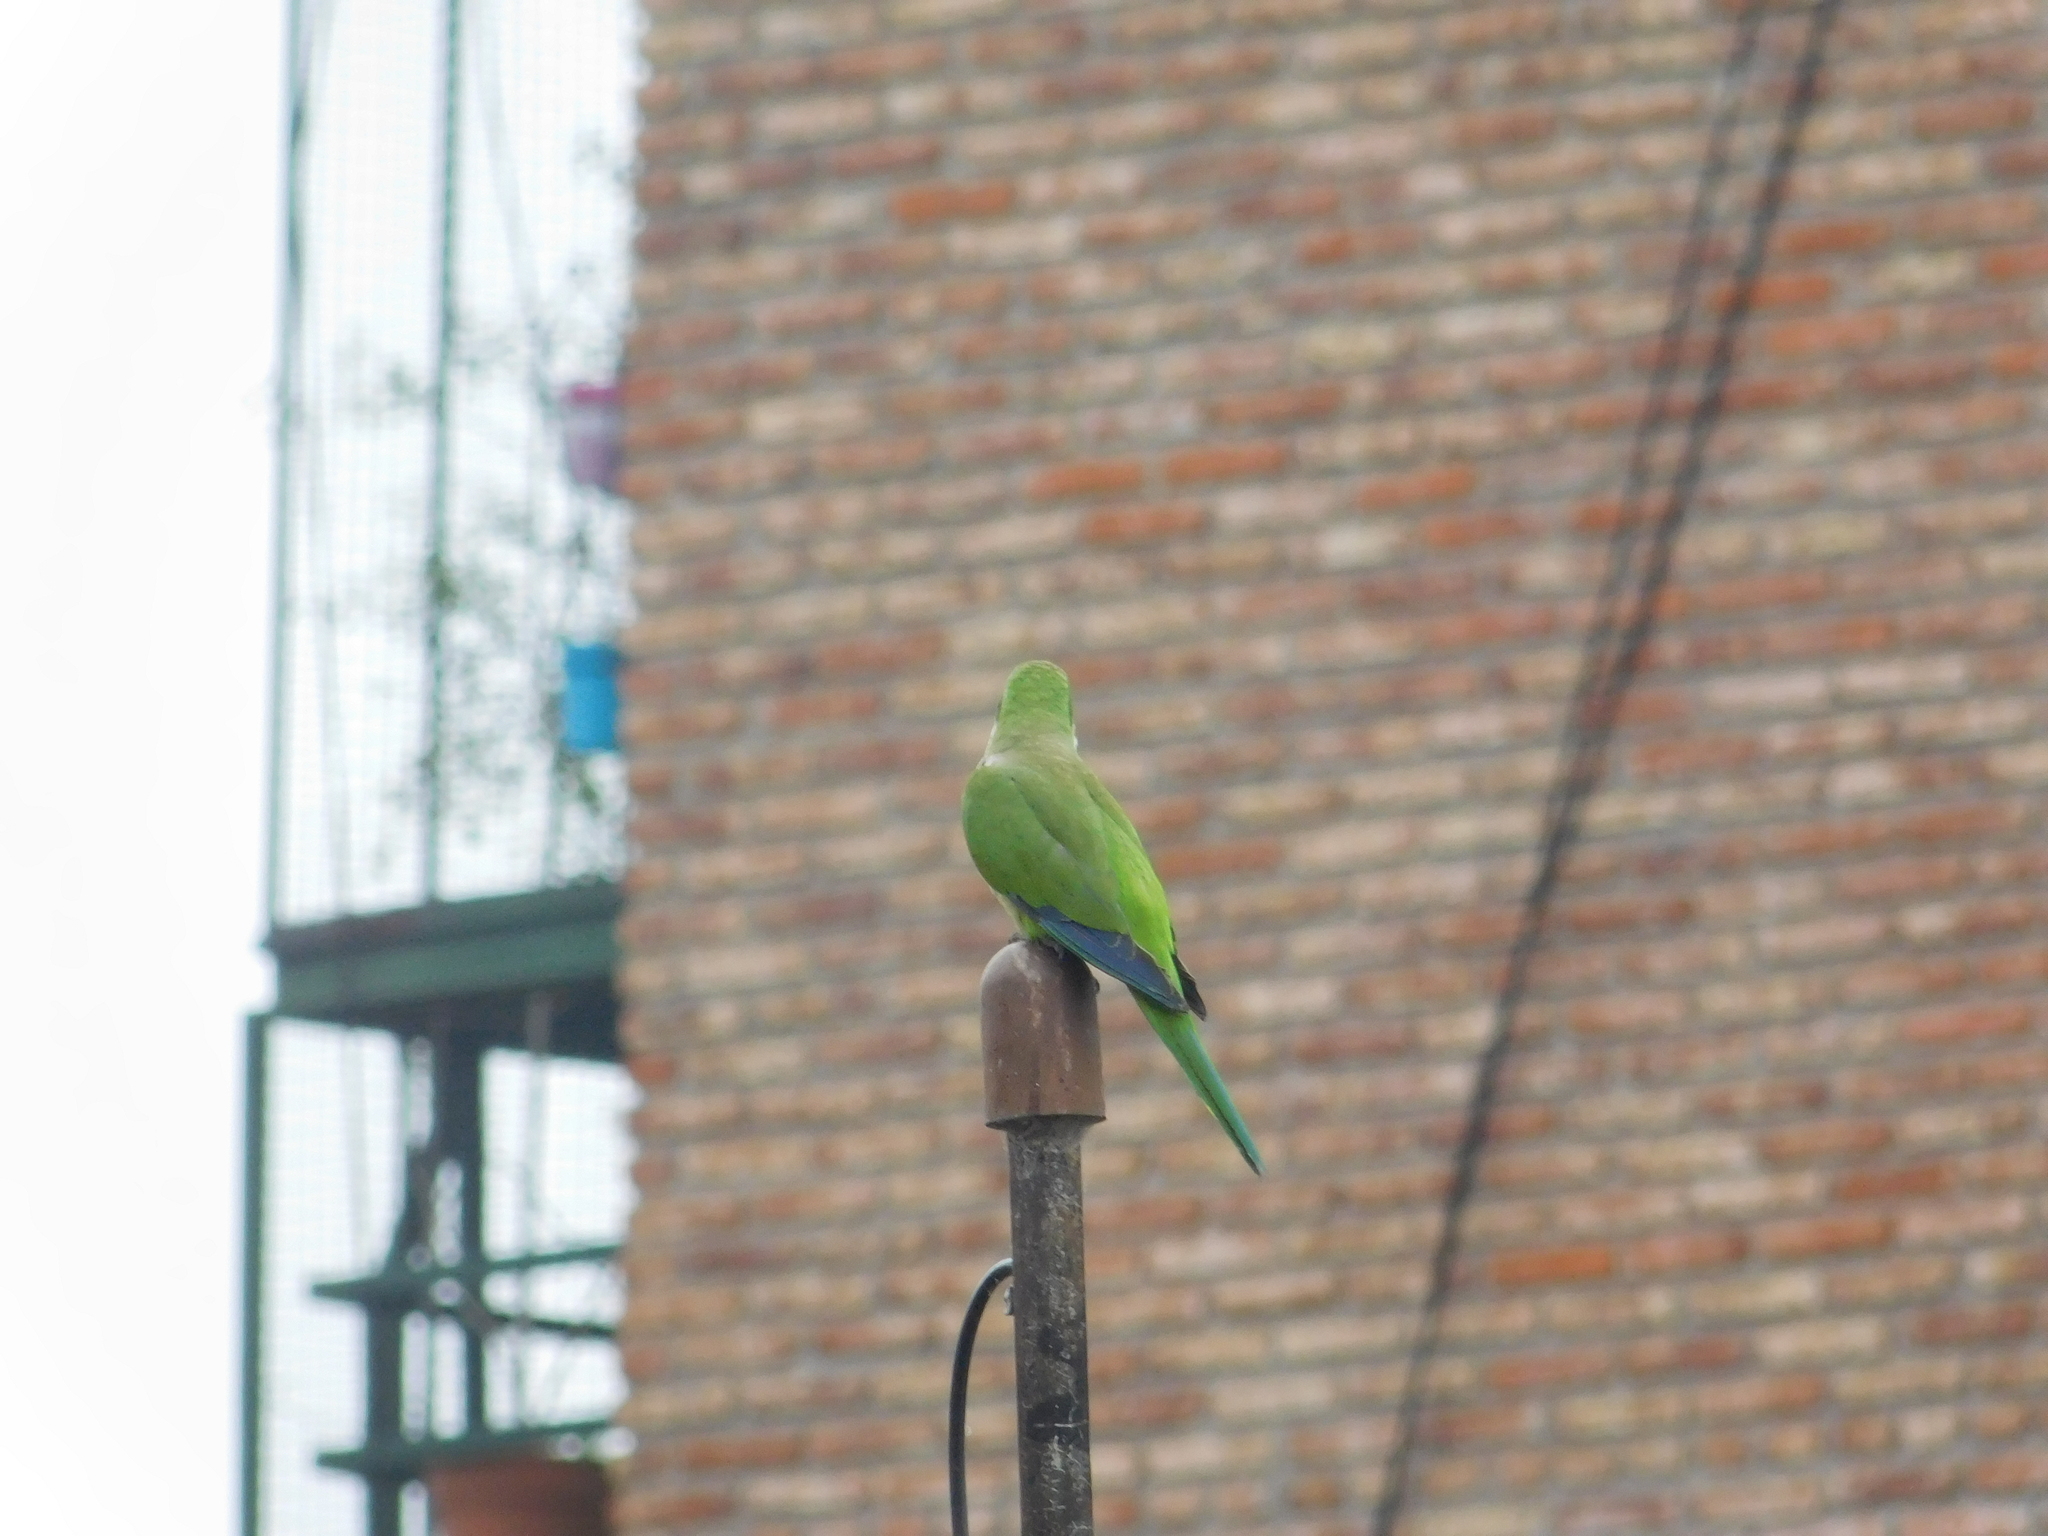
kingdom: Animalia
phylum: Chordata
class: Aves
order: Psittaciformes
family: Psittacidae
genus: Myiopsitta
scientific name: Myiopsitta monachus
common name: Monk parakeet
